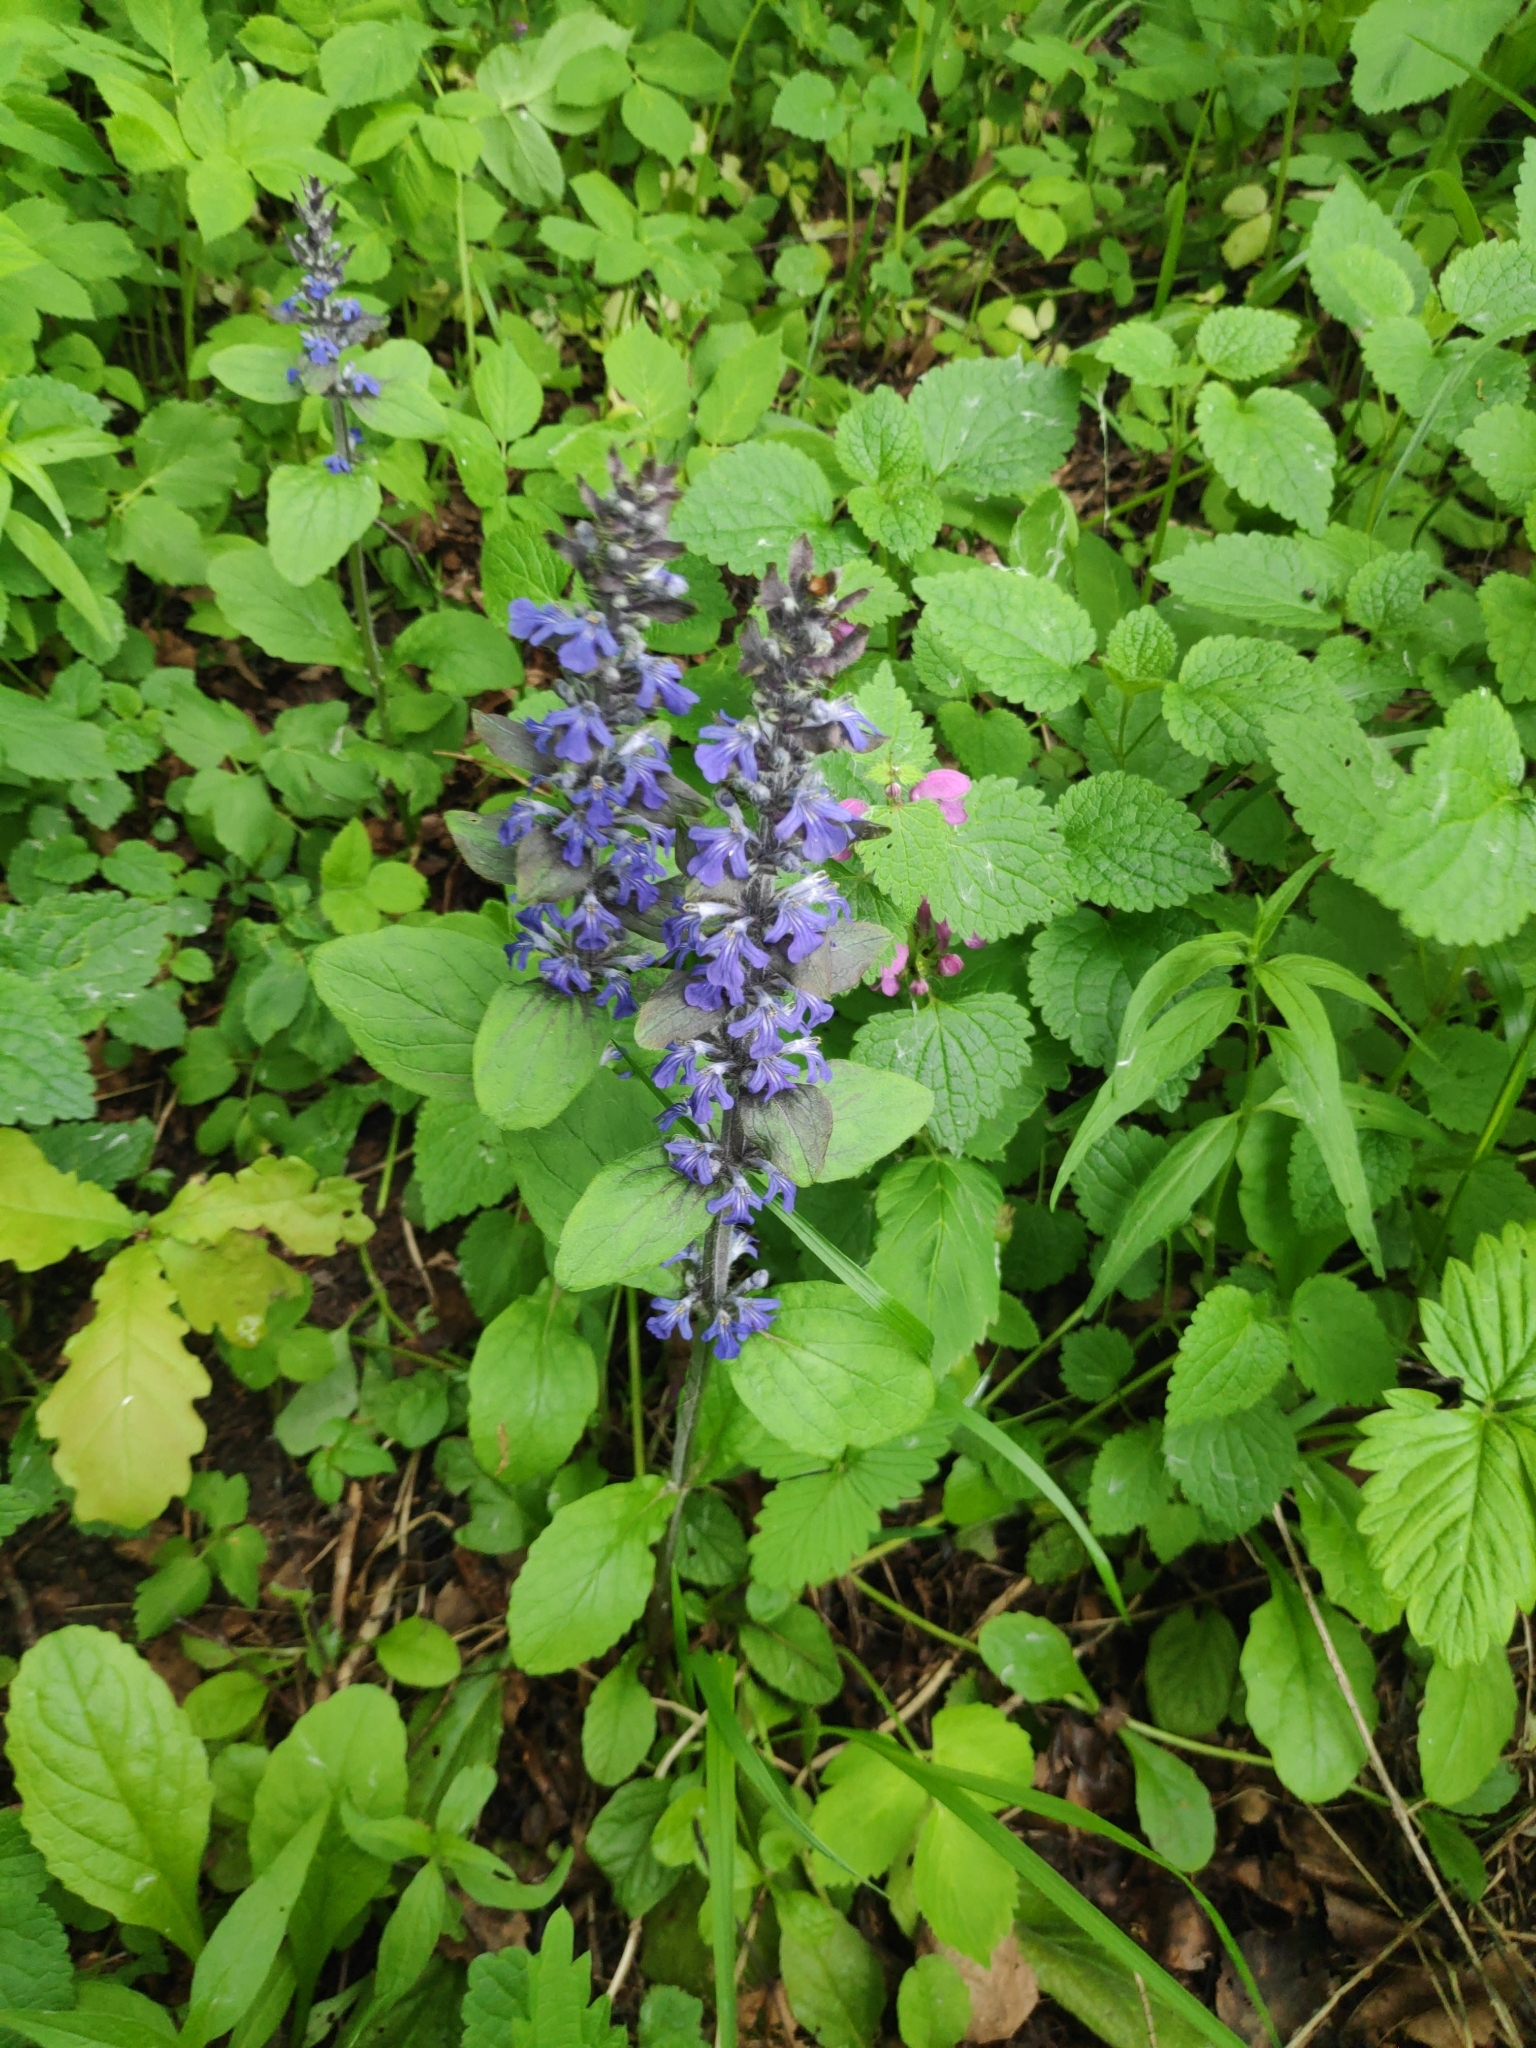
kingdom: Plantae
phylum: Tracheophyta
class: Magnoliopsida
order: Lamiales
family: Lamiaceae
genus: Ajuga
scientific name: Ajuga reptans
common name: Bugle
